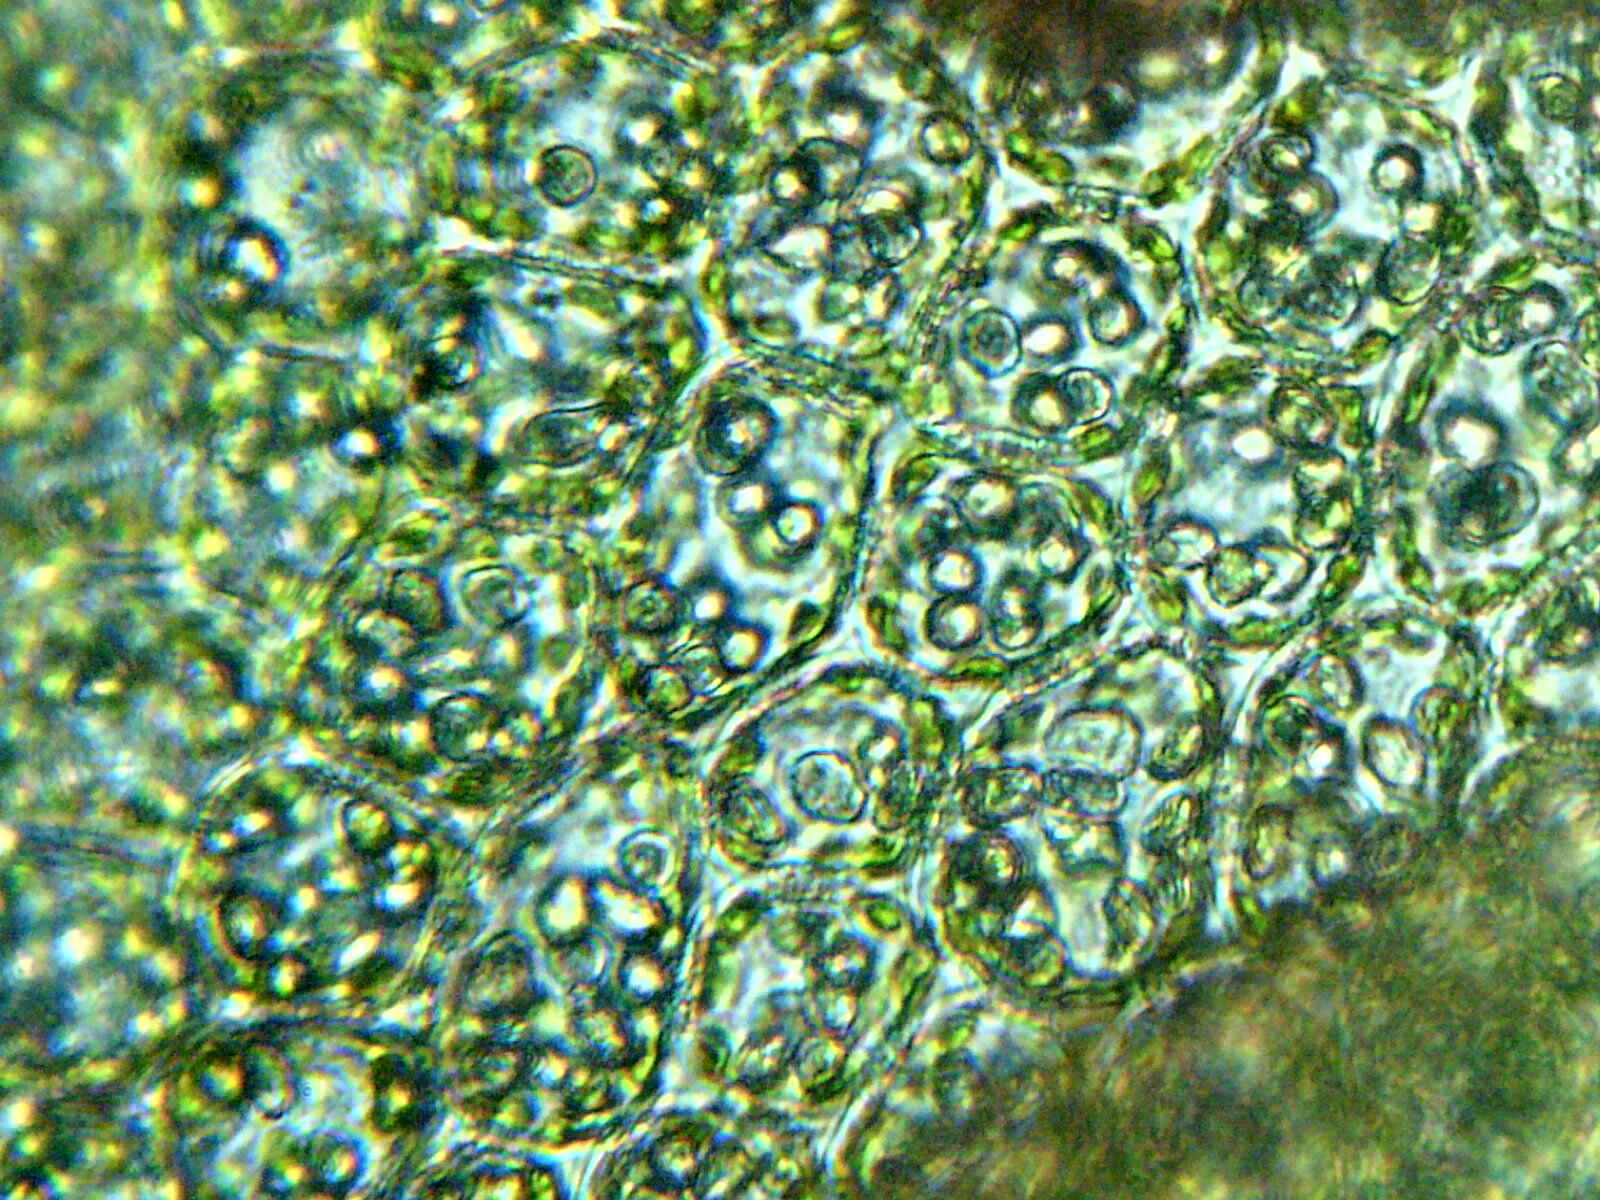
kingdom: Plantae
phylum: Marchantiophyta
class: Jungermanniopsida
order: Jungermanniales
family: Scapaniaceae
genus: Scapania
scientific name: Scapania nemorea
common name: Grove earwort
